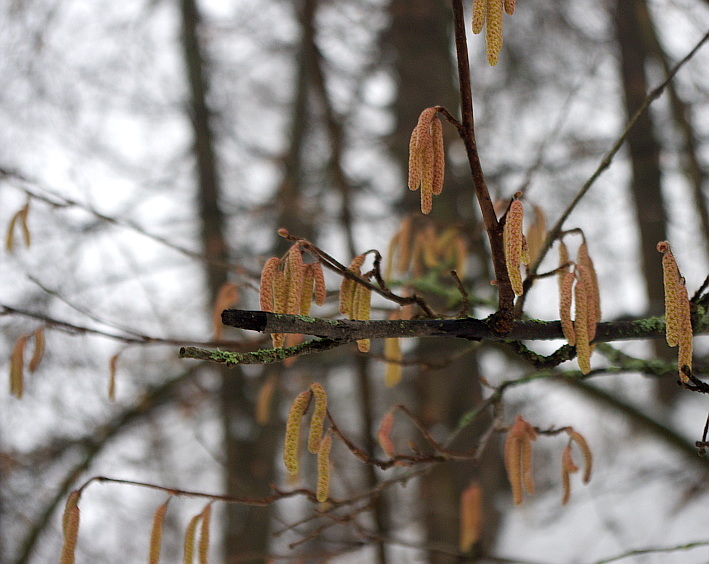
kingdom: Plantae
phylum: Tracheophyta
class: Magnoliopsida
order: Fagales
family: Betulaceae
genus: Corylus
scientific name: Corylus avellana
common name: European hazel
